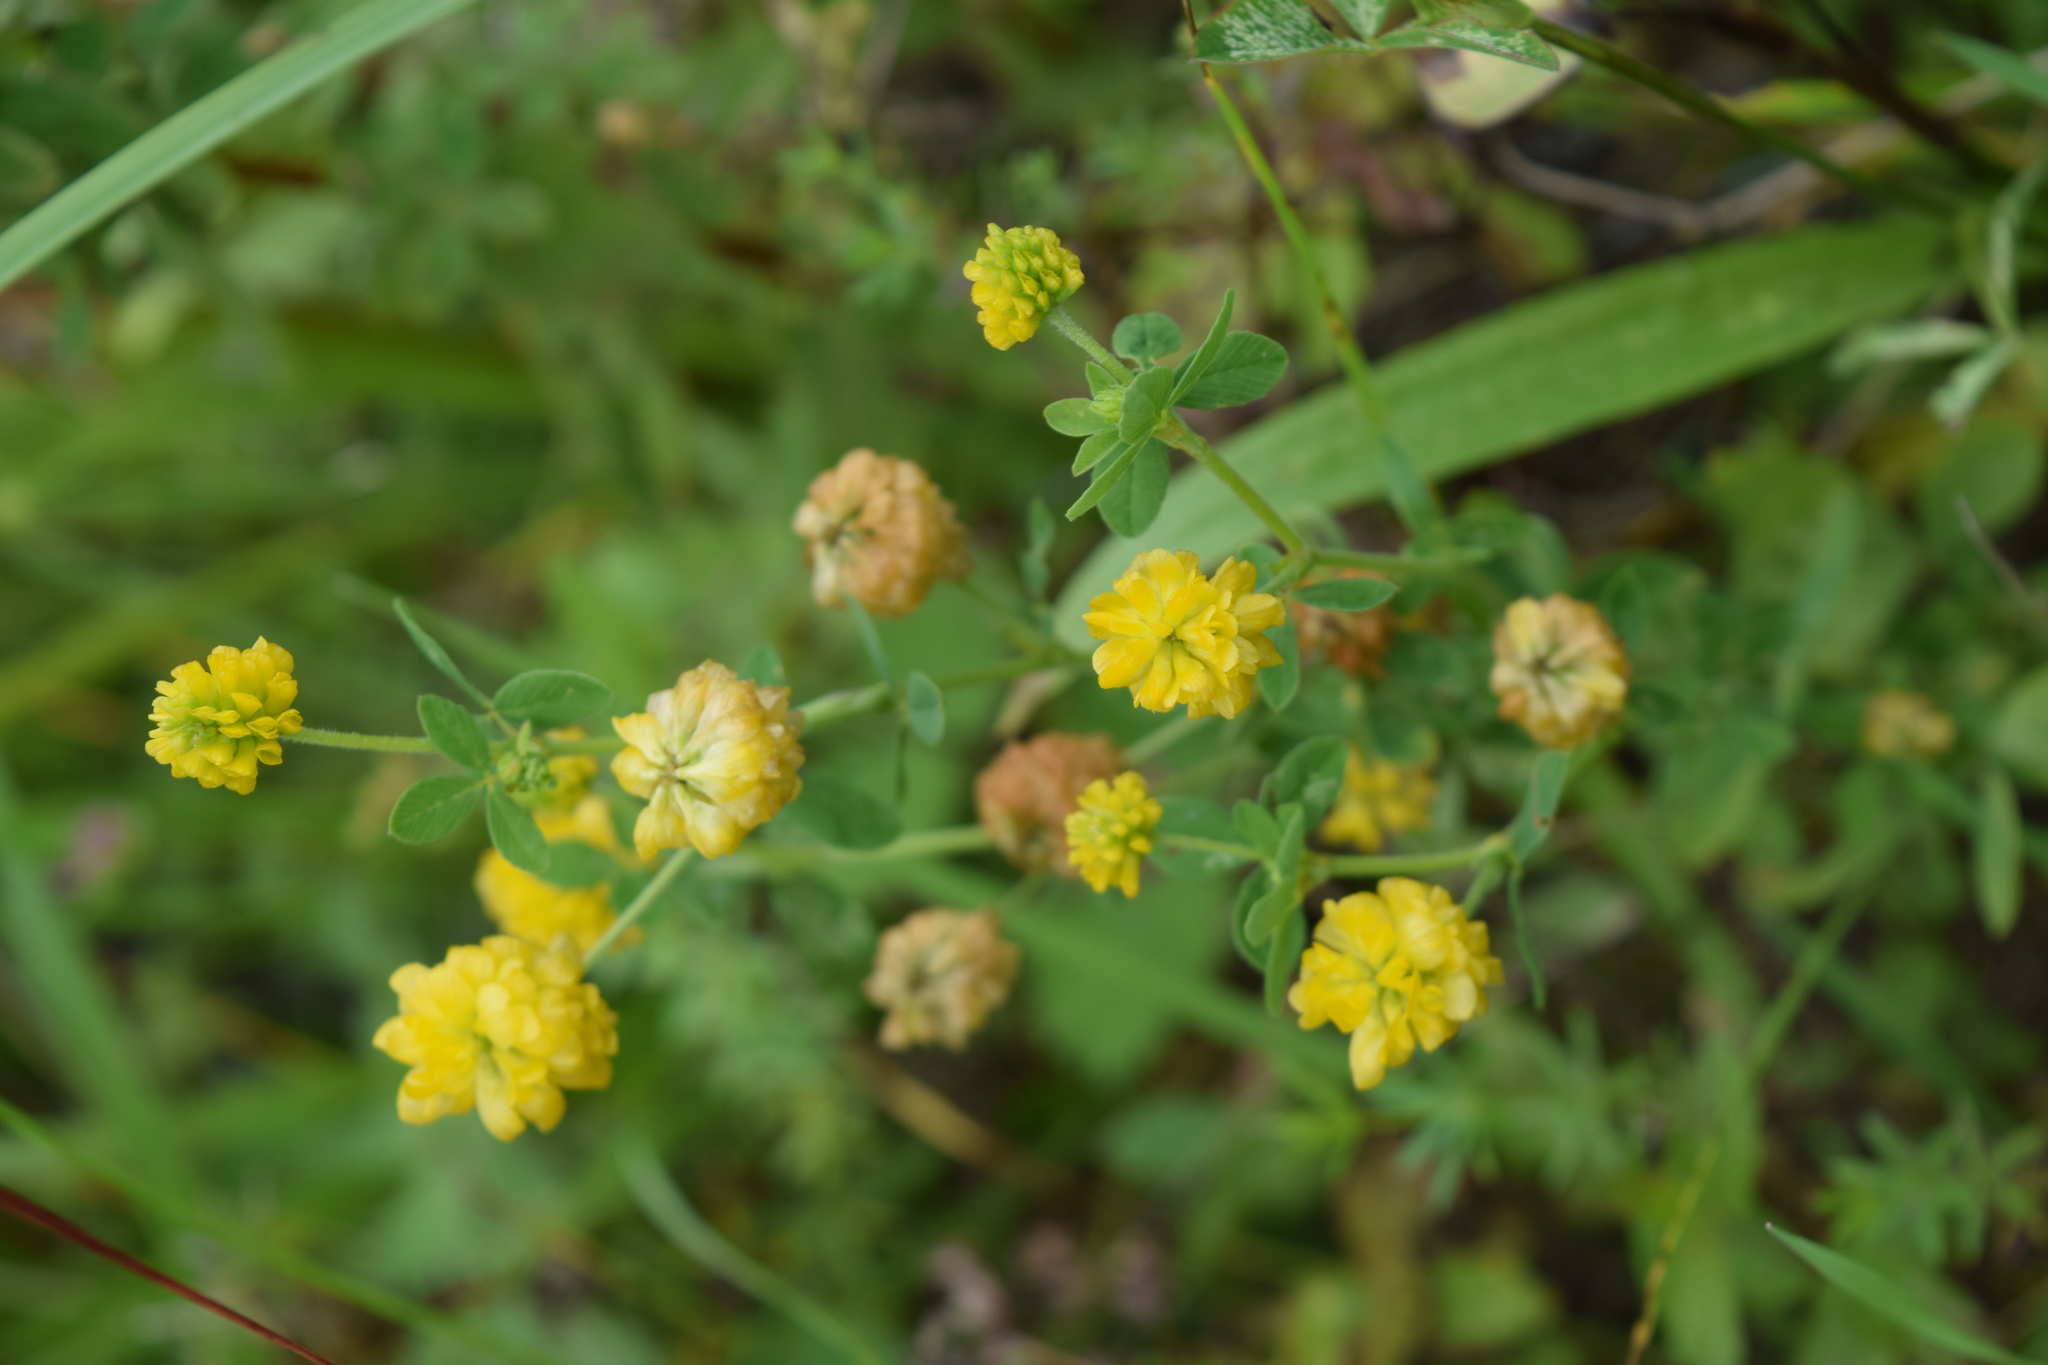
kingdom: Plantae
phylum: Tracheophyta
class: Magnoliopsida
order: Fabales
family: Fabaceae
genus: Trifolium
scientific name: Trifolium aureum
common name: Golden clover
